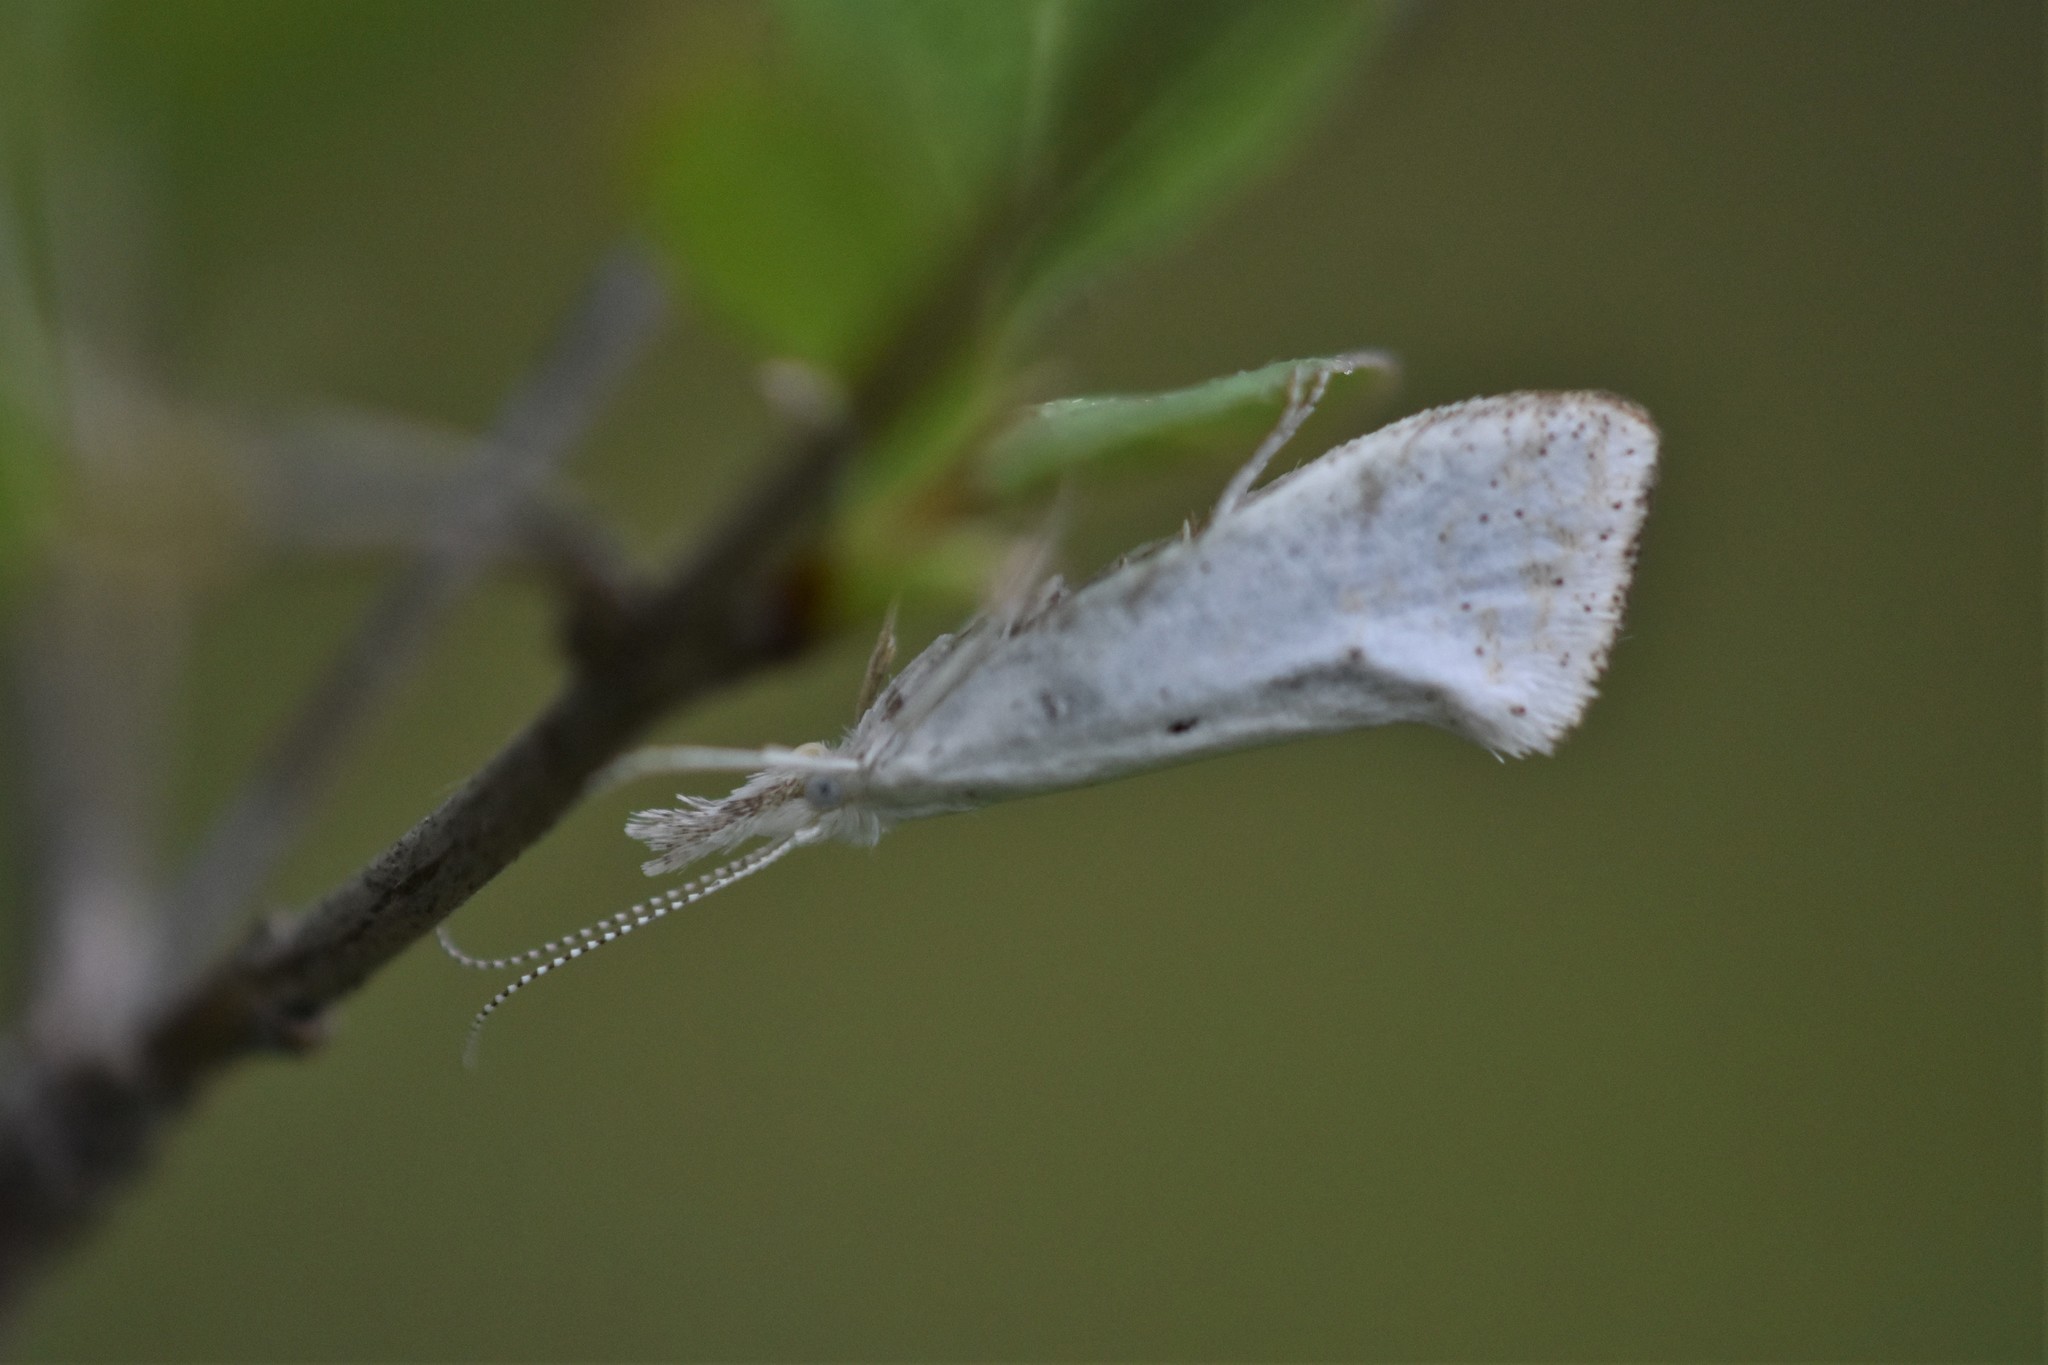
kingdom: Animalia
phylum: Arthropoda
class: Insecta
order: Lepidoptera
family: Ypsolophidae
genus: Euceratia
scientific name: Euceratia castella
